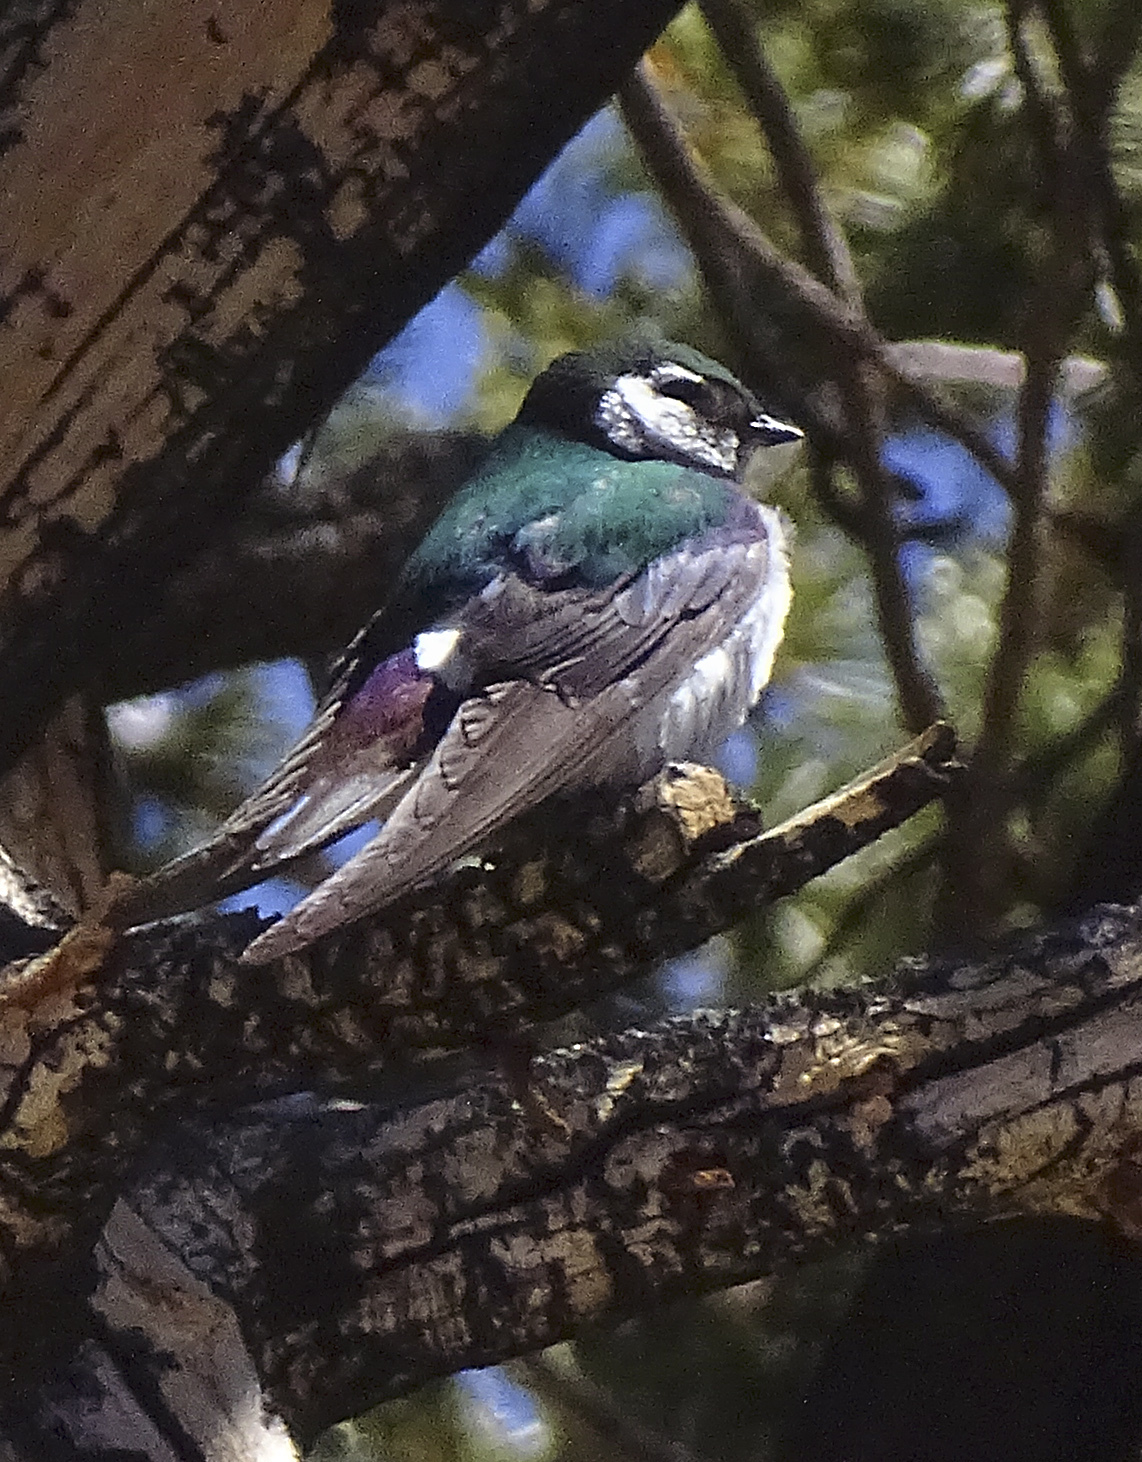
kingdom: Animalia
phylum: Chordata
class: Aves
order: Passeriformes
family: Hirundinidae
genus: Tachycineta
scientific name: Tachycineta thalassina
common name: Violet-green swallow
